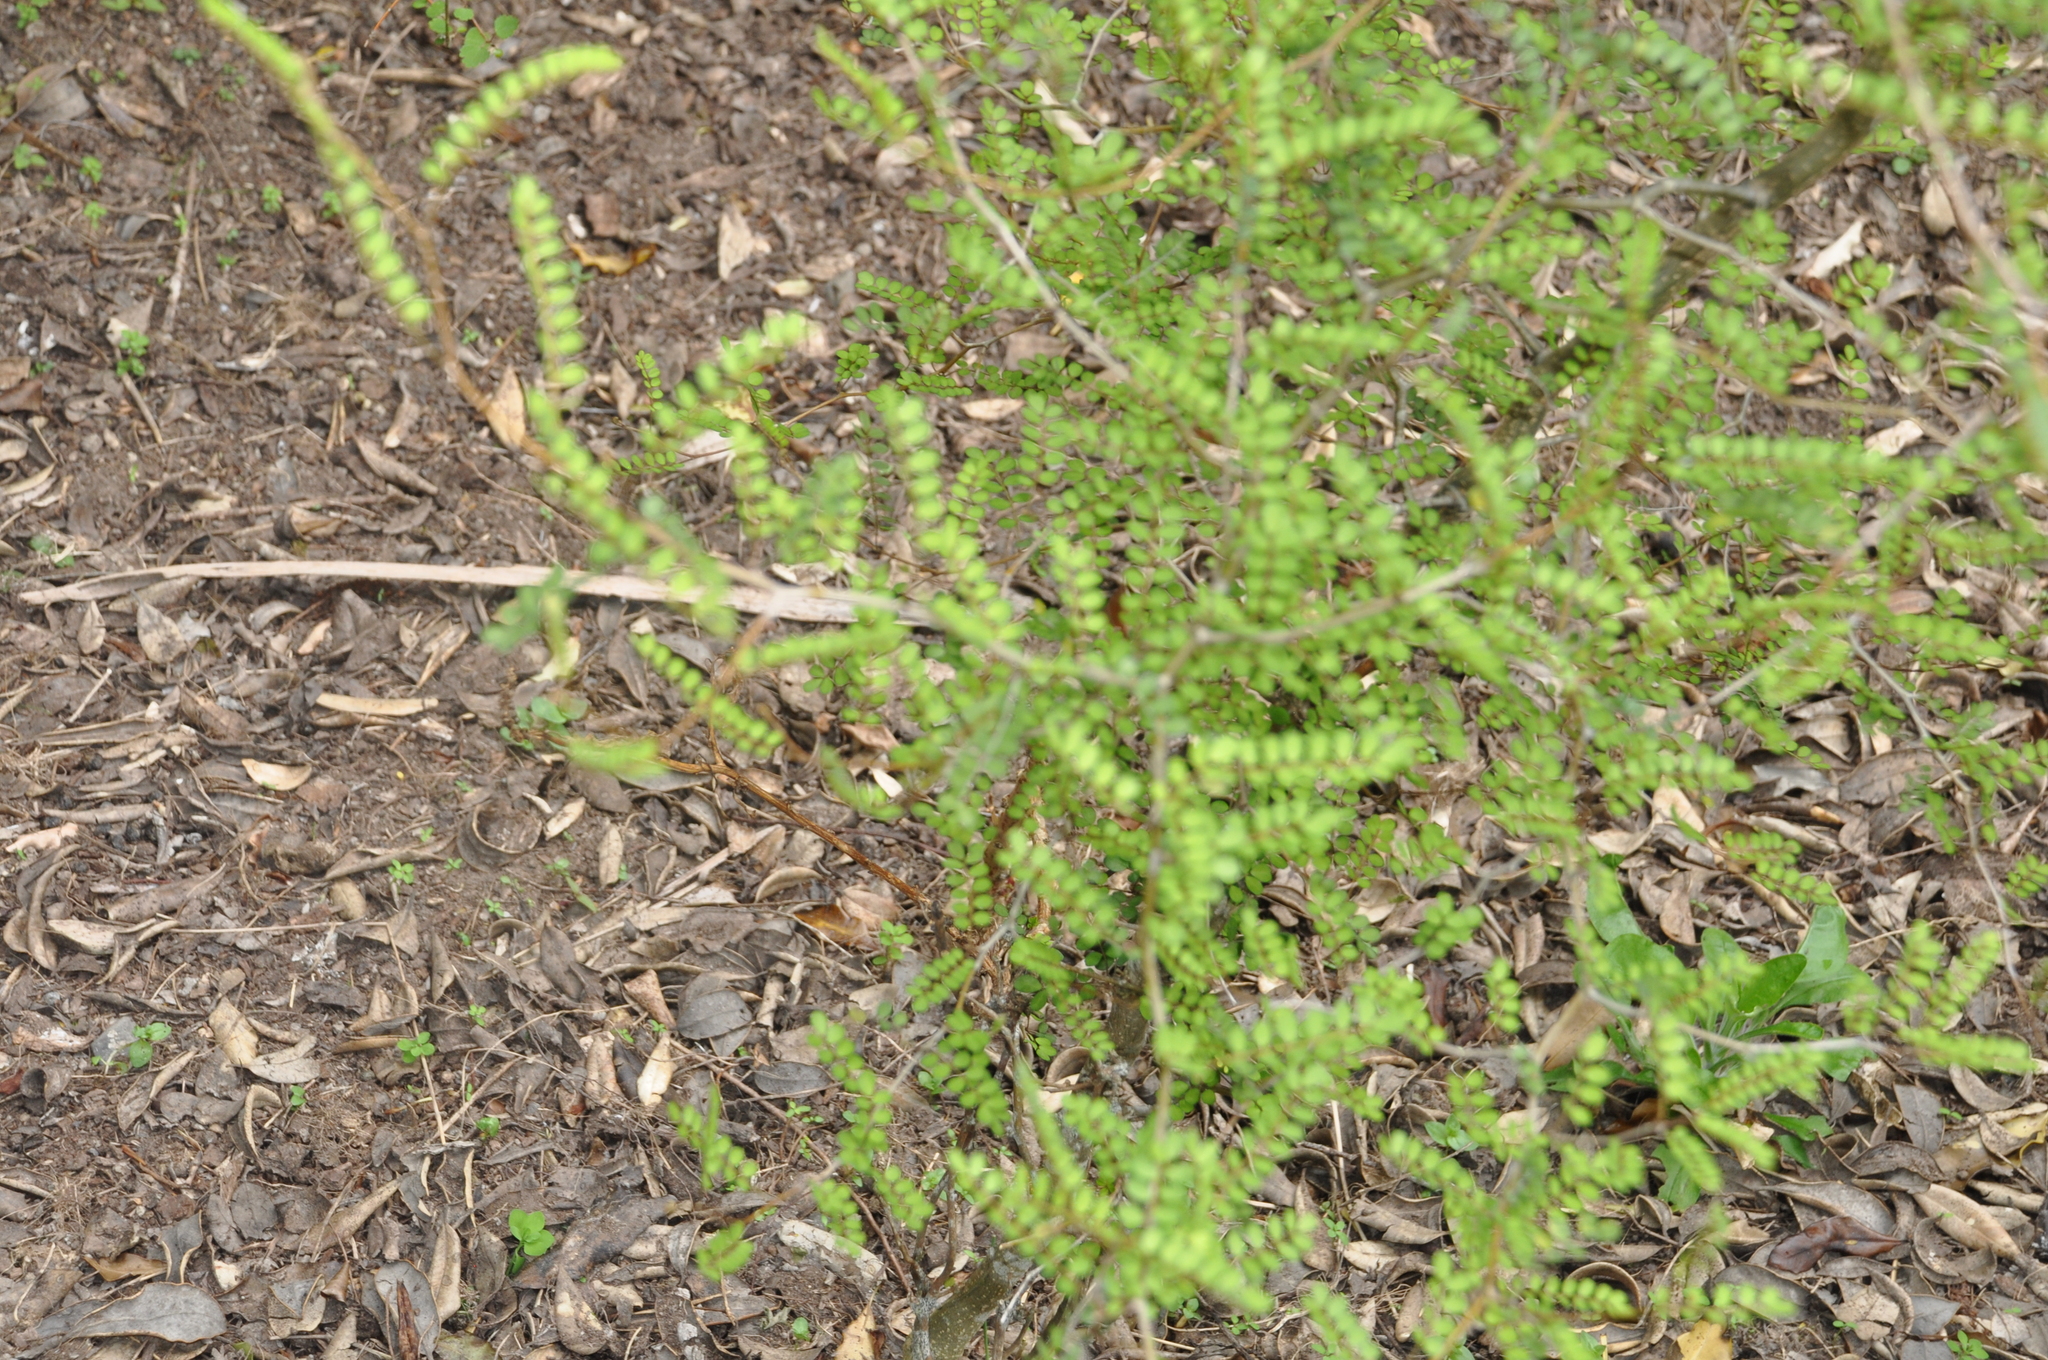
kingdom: Plantae
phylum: Tracheophyta
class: Magnoliopsida
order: Fabales
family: Fabaceae
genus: Sophora
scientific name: Sophora microphylla
